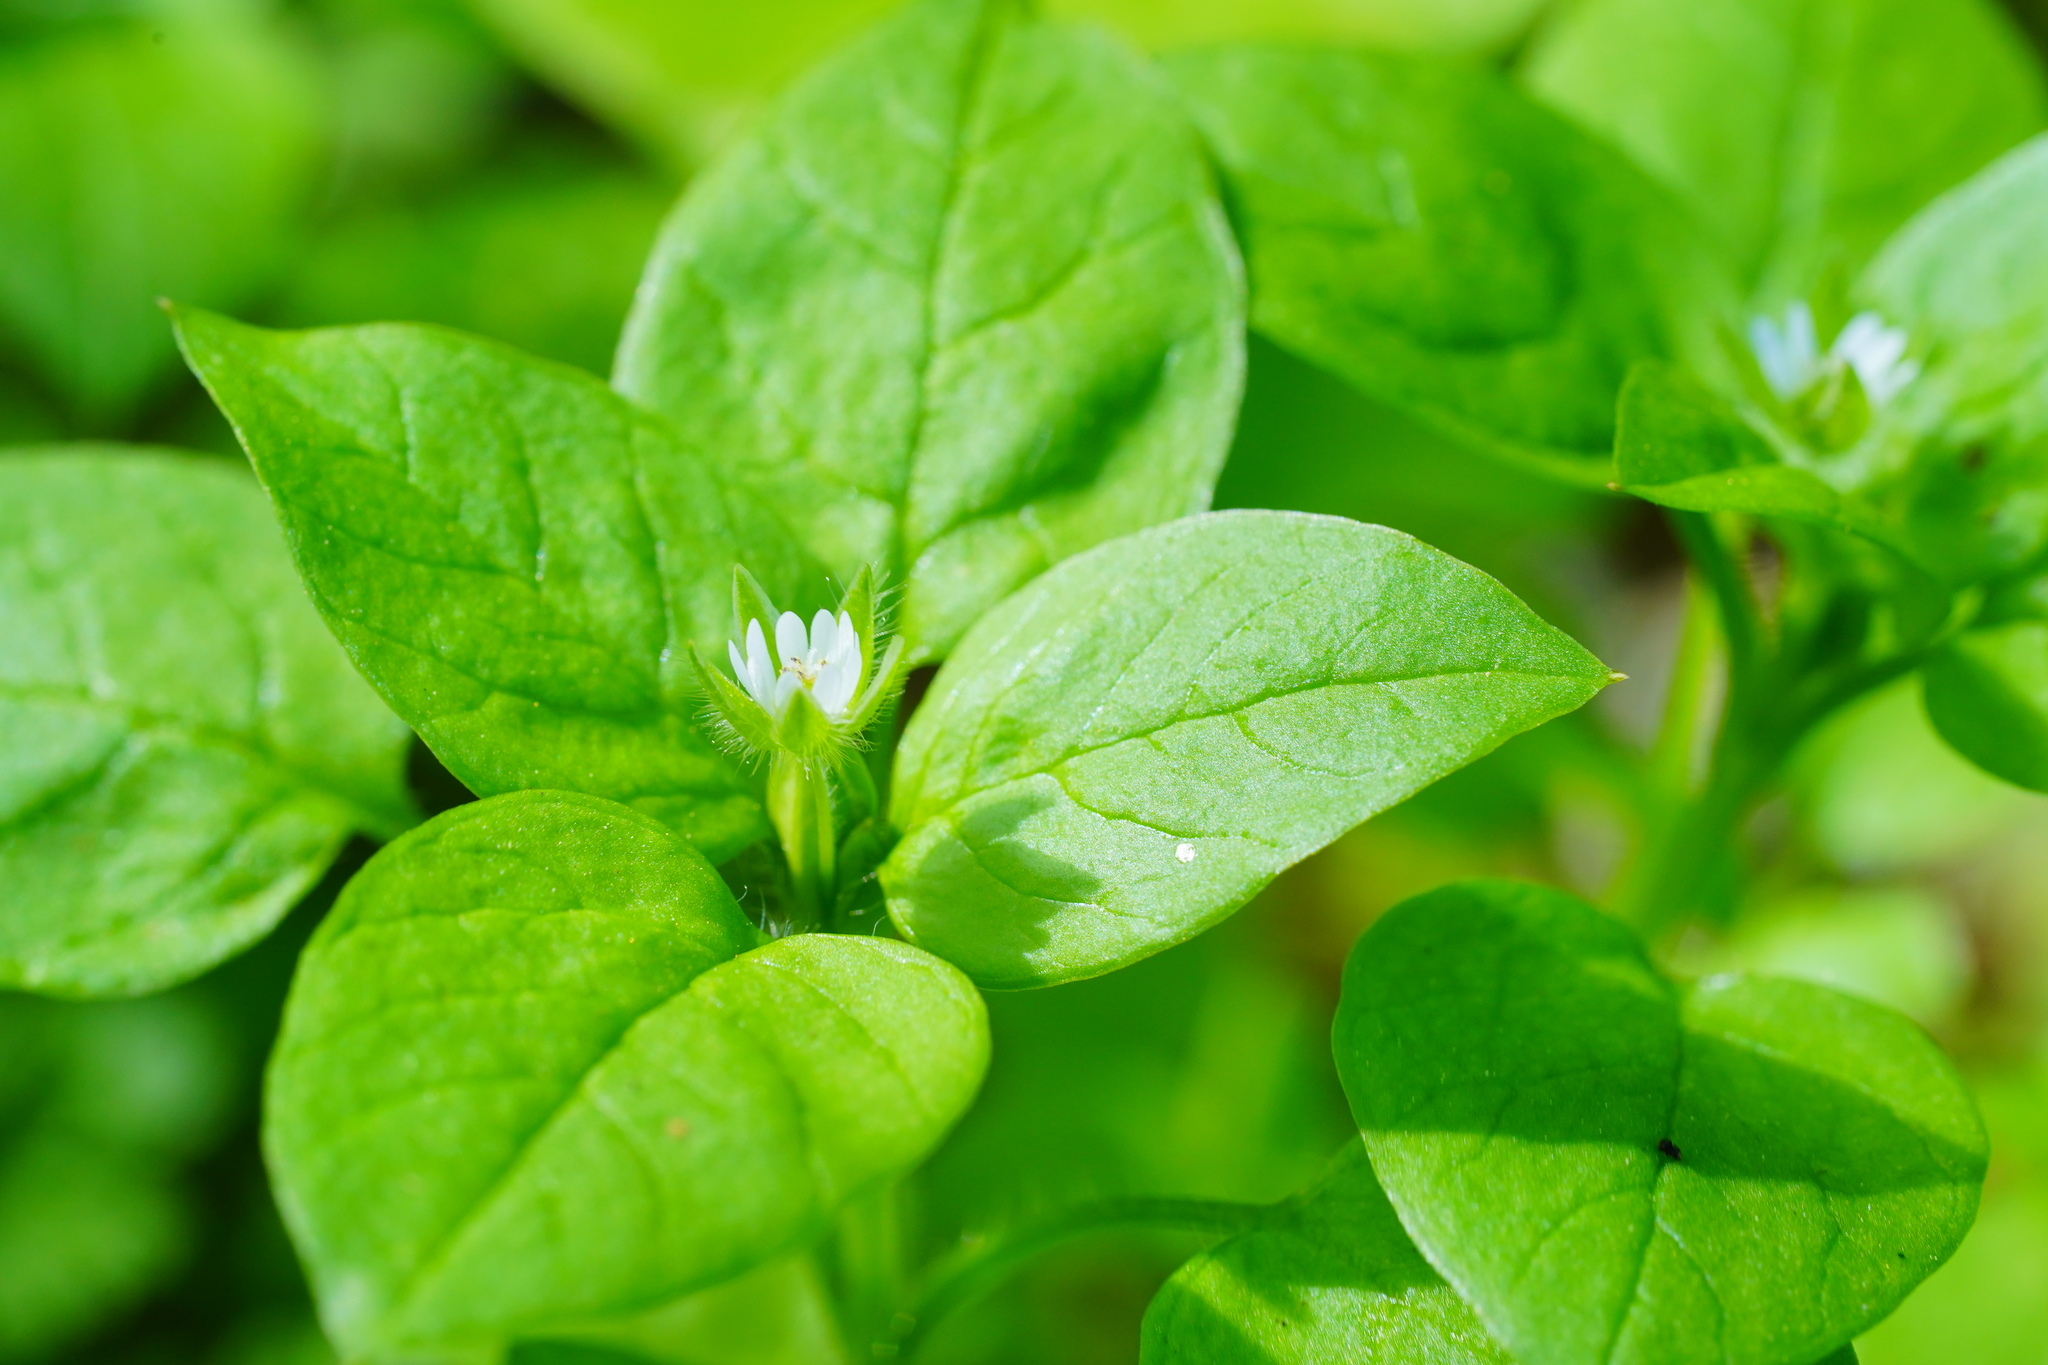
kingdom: Plantae
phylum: Tracheophyta
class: Magnoliopsida
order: Caryophyllales
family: Caryophyllaceae
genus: Stellaria
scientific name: Stellaria media
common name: Common chickweed
